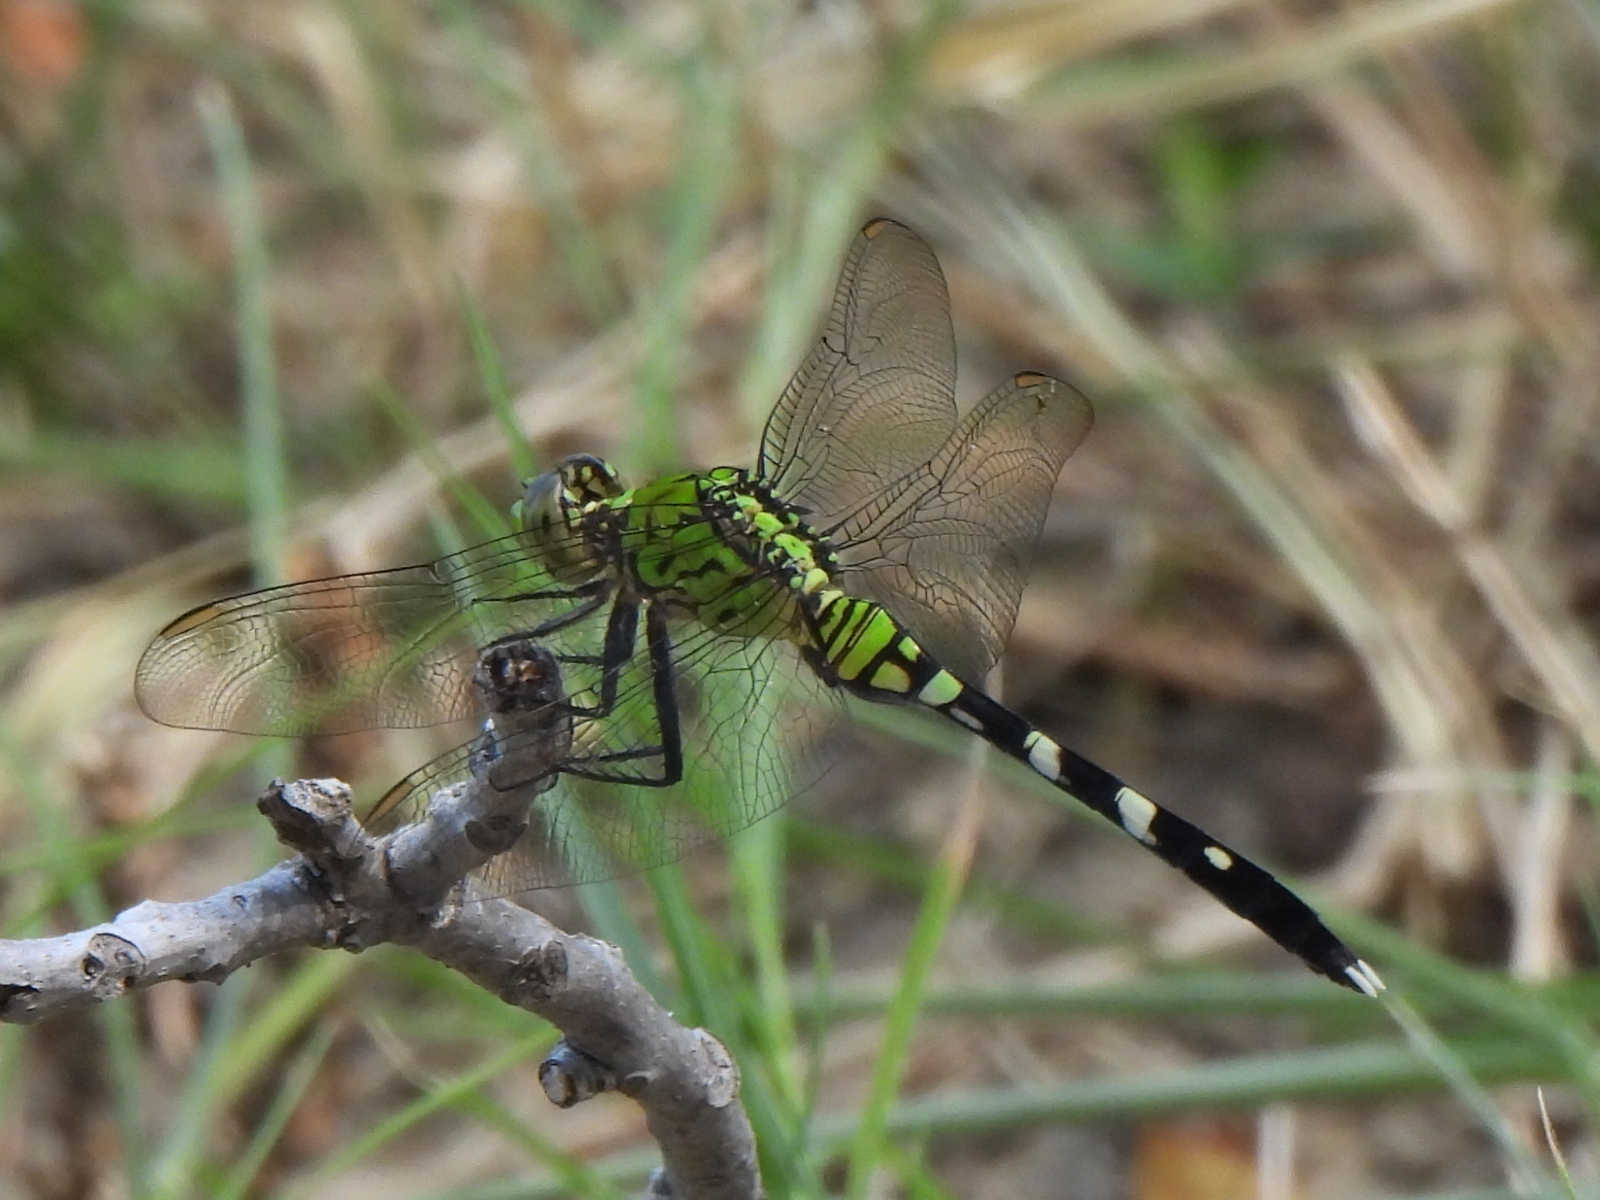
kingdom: Animalia
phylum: Arthropoda
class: Insecta
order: Odonata
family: Libellulidae
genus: Erythemis
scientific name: Erythemis simplicicollis
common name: Eastern pondhawk
